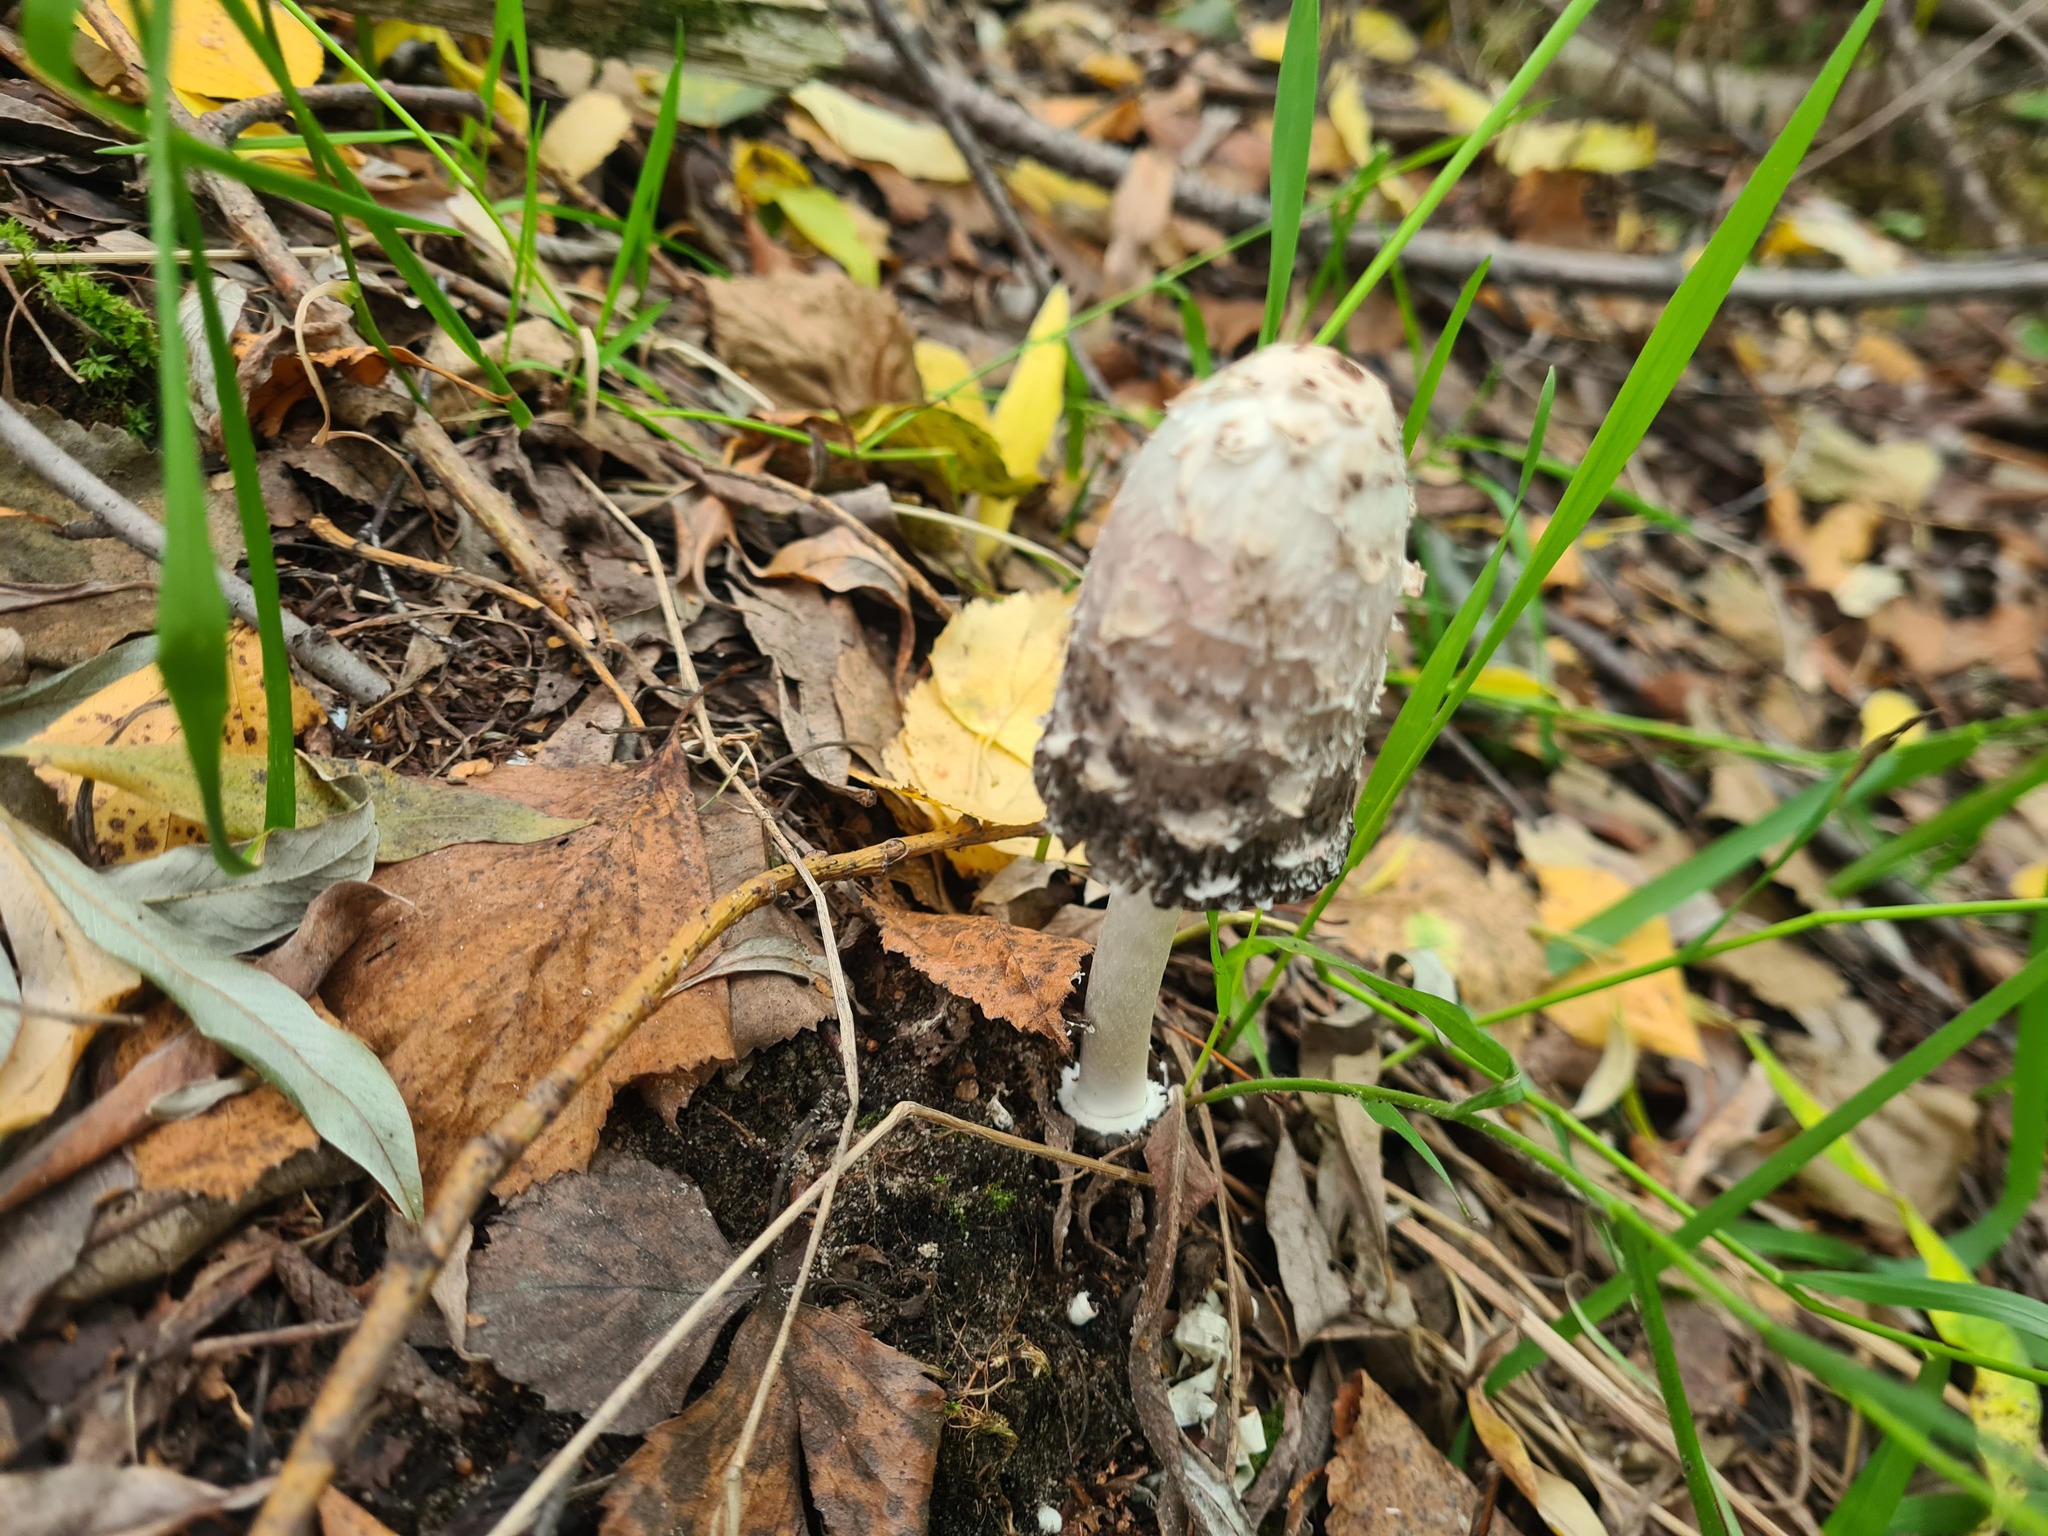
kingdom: Fungi
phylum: Basidiomycota
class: Agaricomycetes
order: Agaricales
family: Agaricaceae
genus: Coprinus
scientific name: Coprinus comatus
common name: Lawyer's wig
